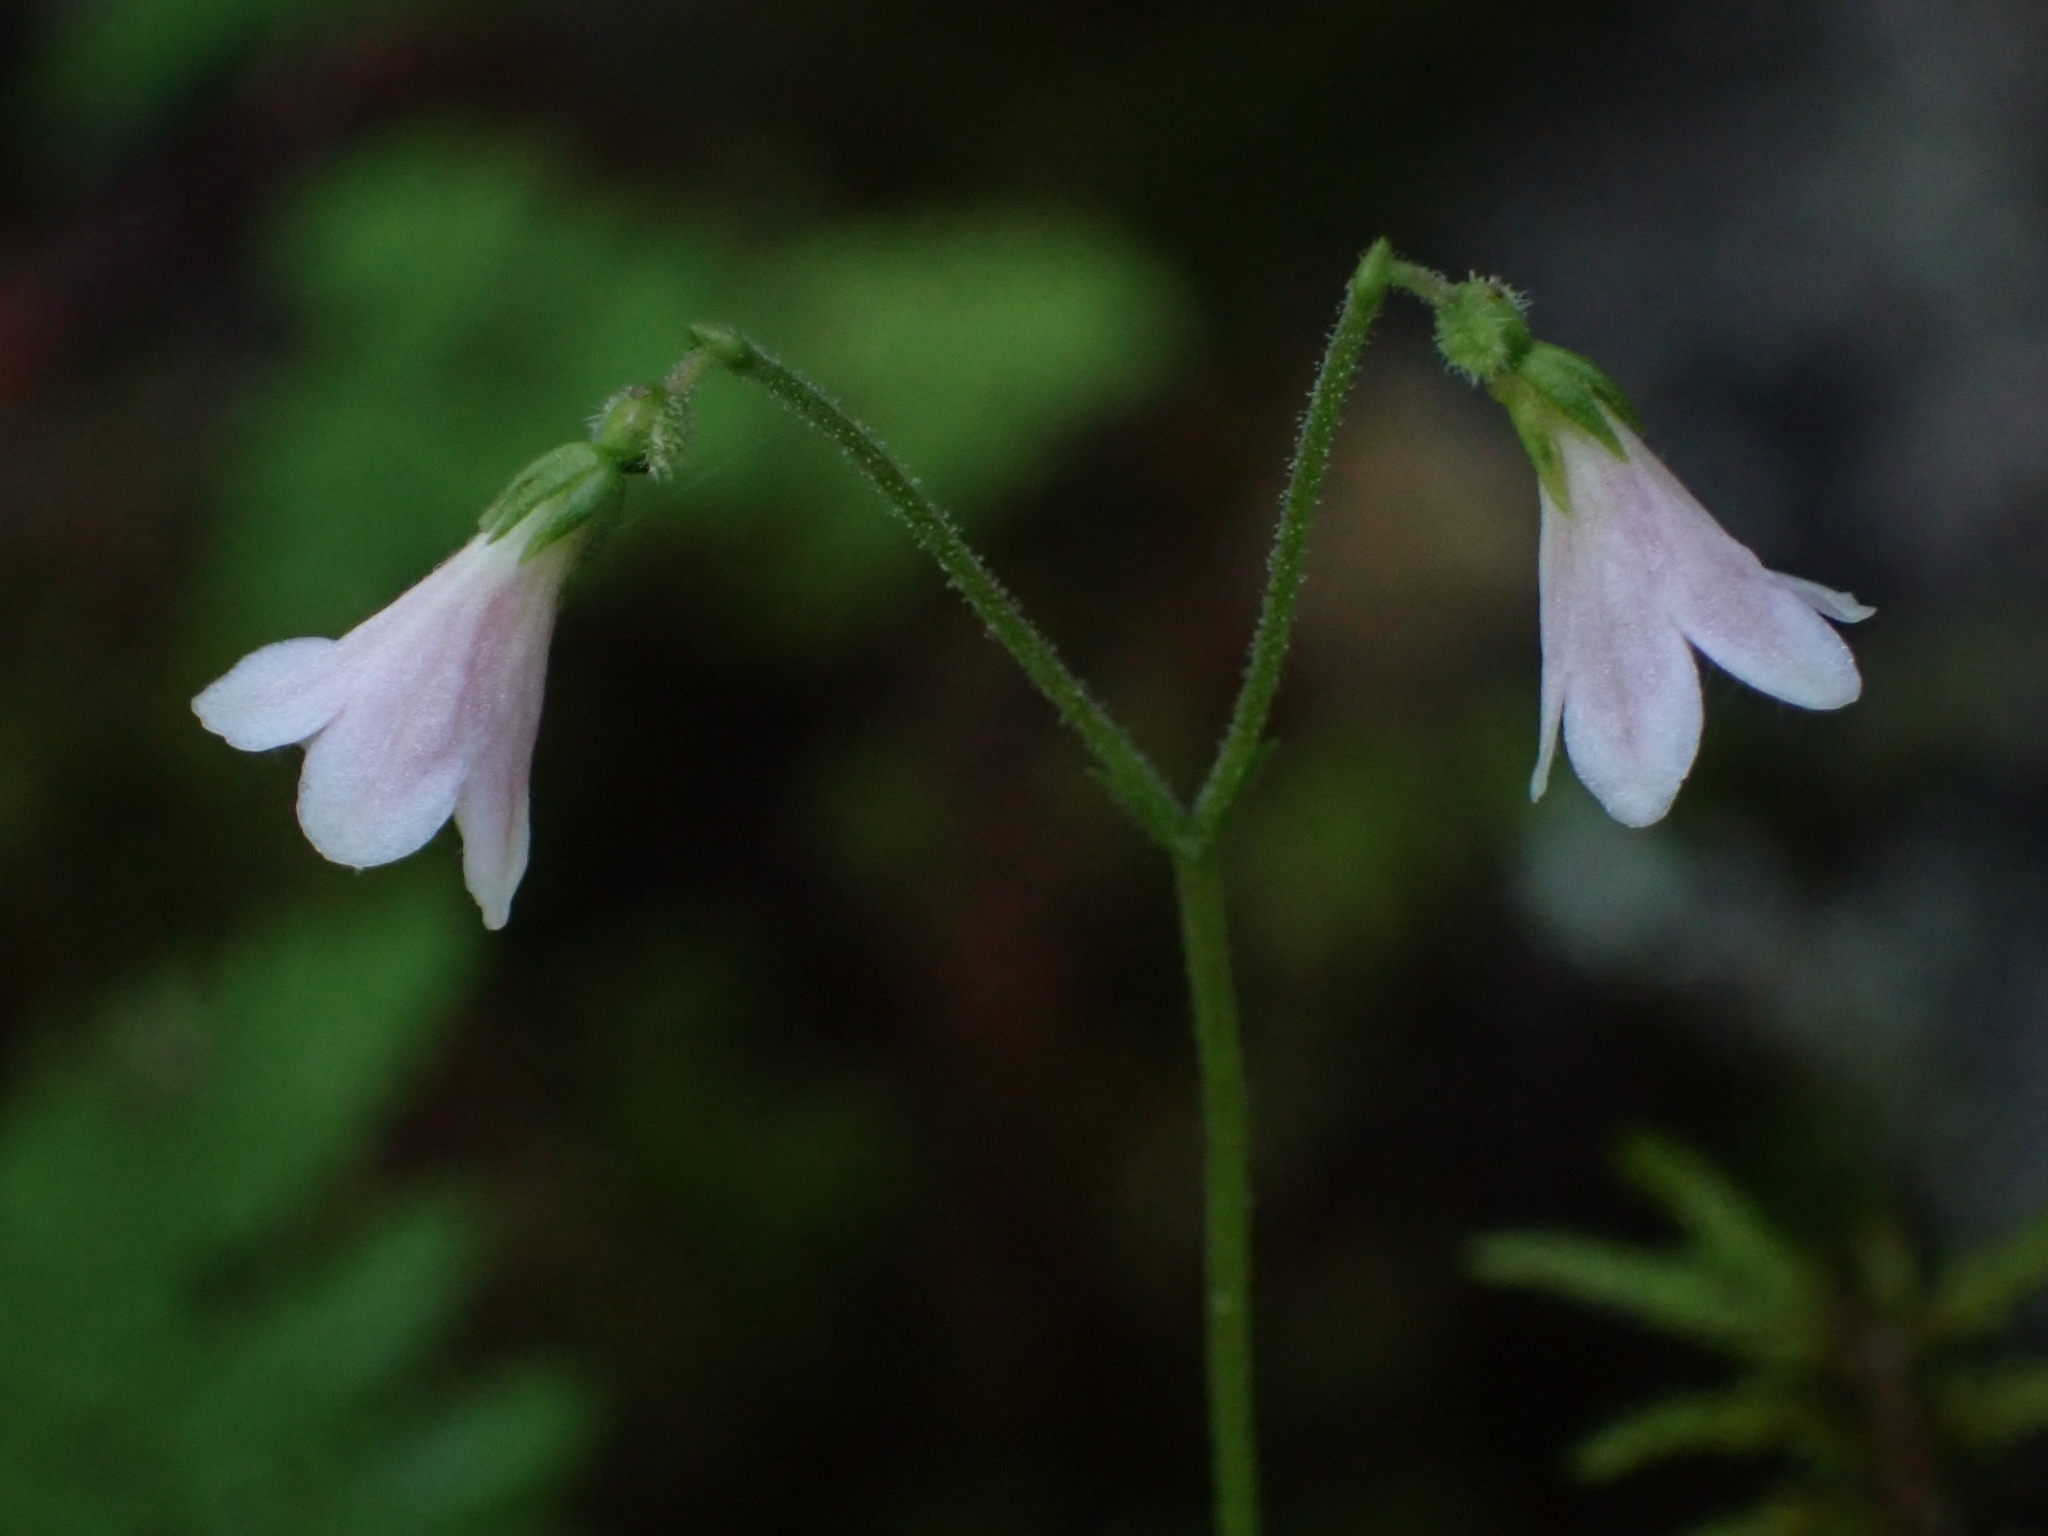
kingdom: Plantae
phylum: Tracheophyta
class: Magnoliopsida
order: Dipsacales
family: Caprifoliaceae
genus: Linnaea
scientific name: Linnaea borealis
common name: Twinflower
